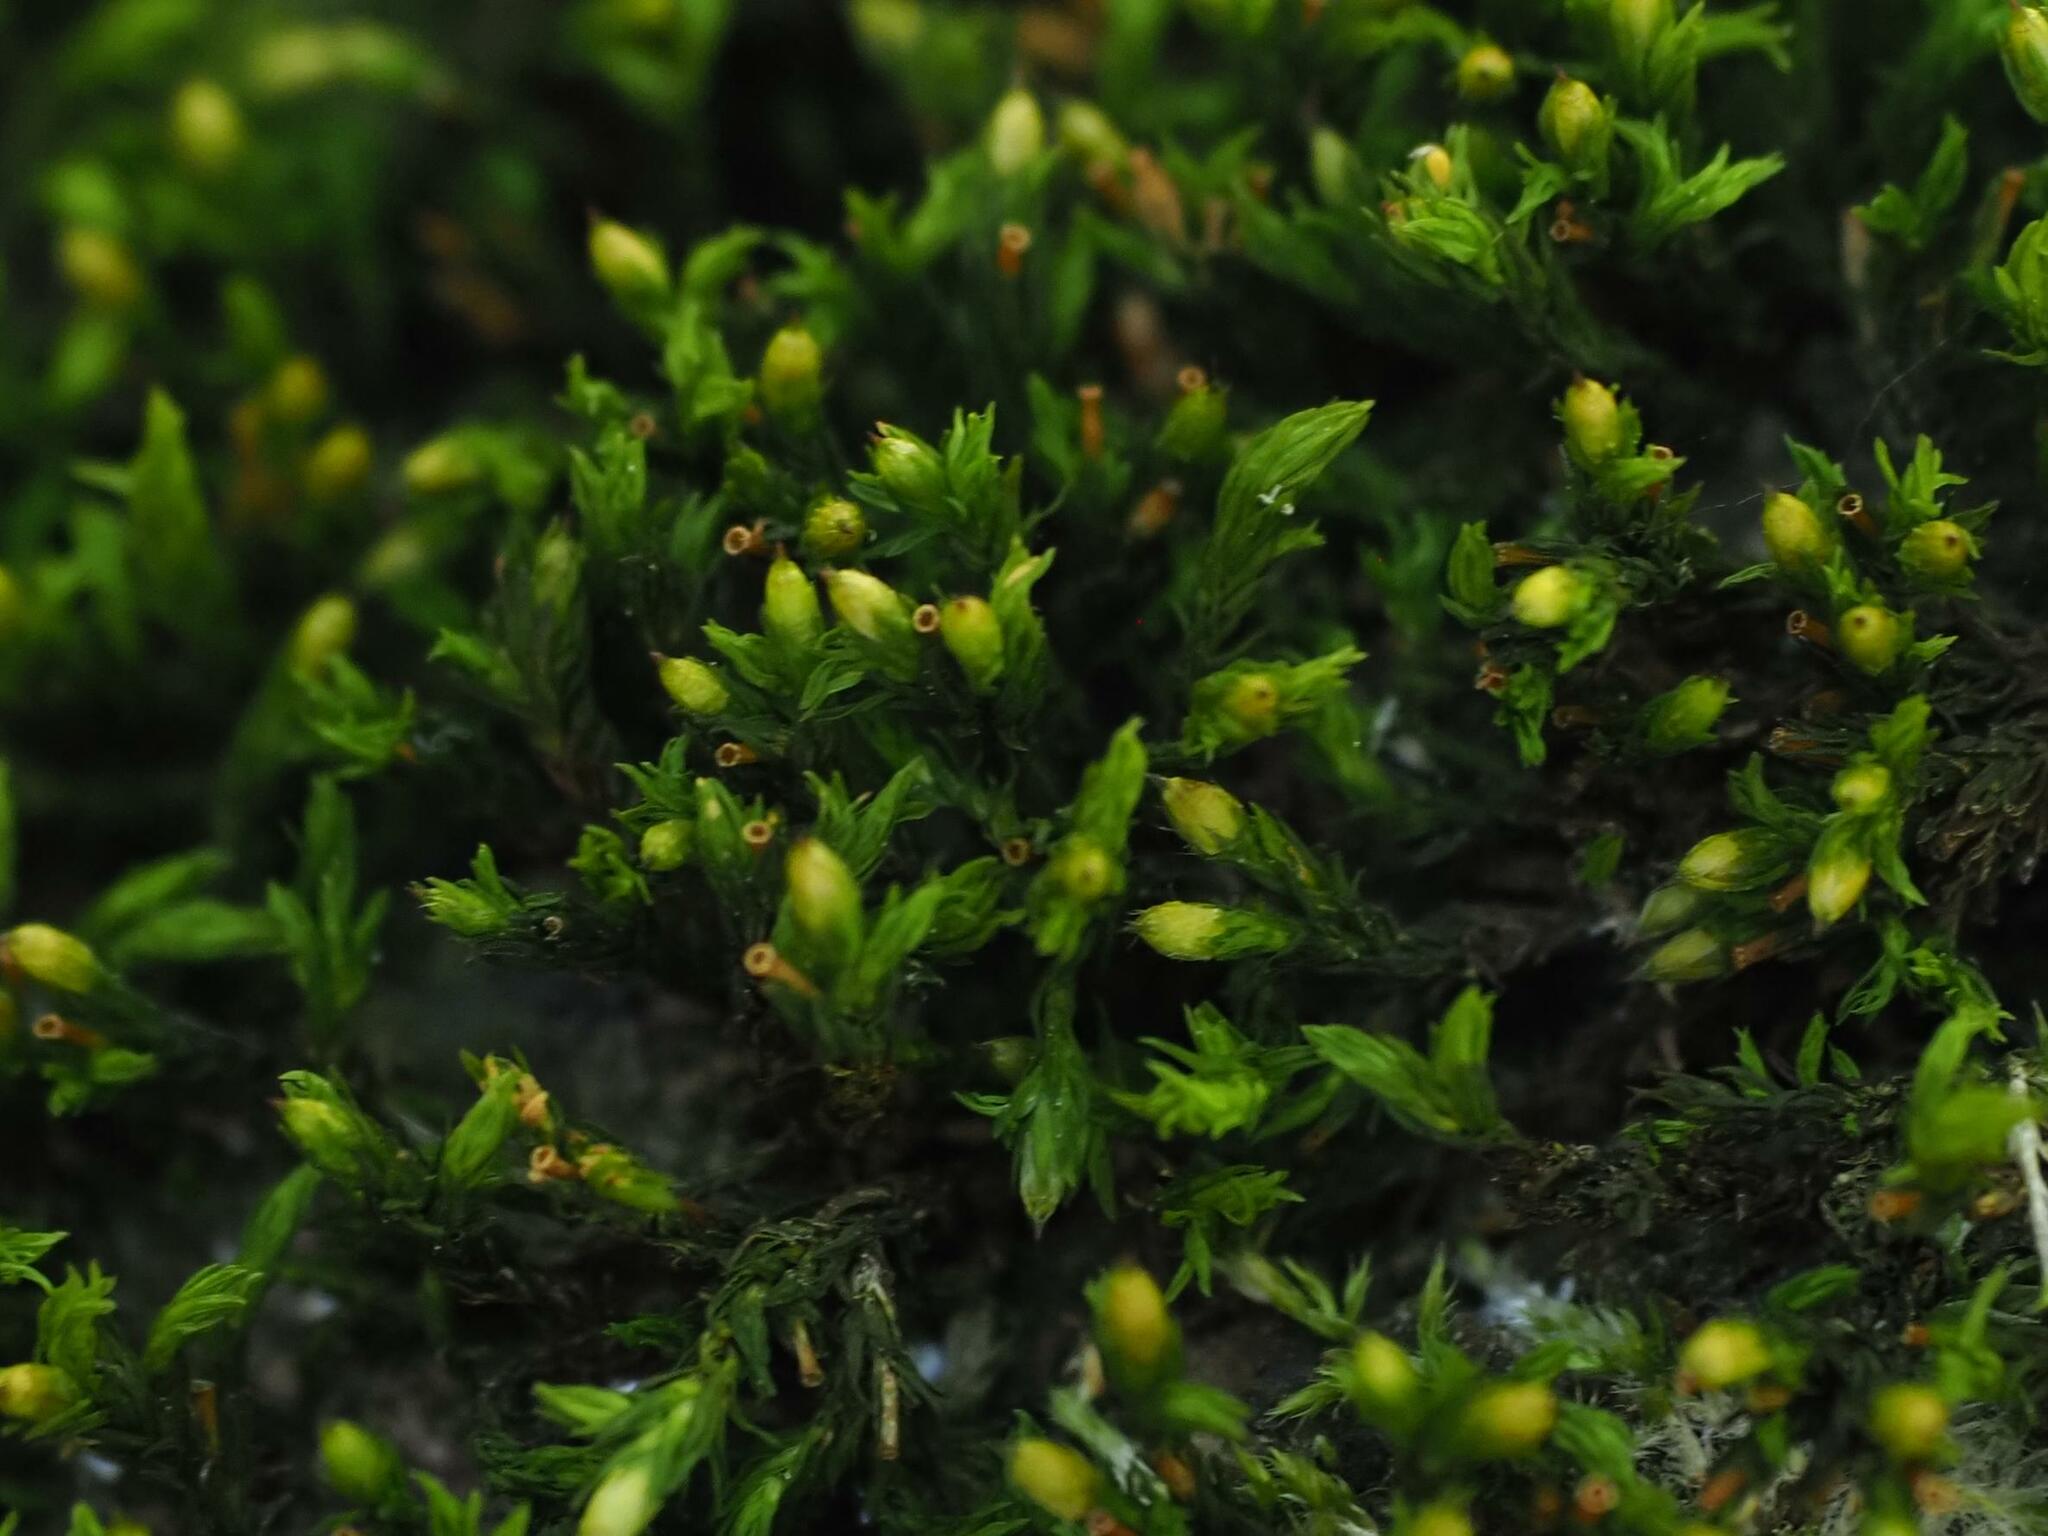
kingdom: Plantae
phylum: Bryophyta
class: Bryopsida
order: Orthotrichales
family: Orthotrichaceae
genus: Lewinskya
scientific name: Lewinskya affinis
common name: Wood bristle-moss
